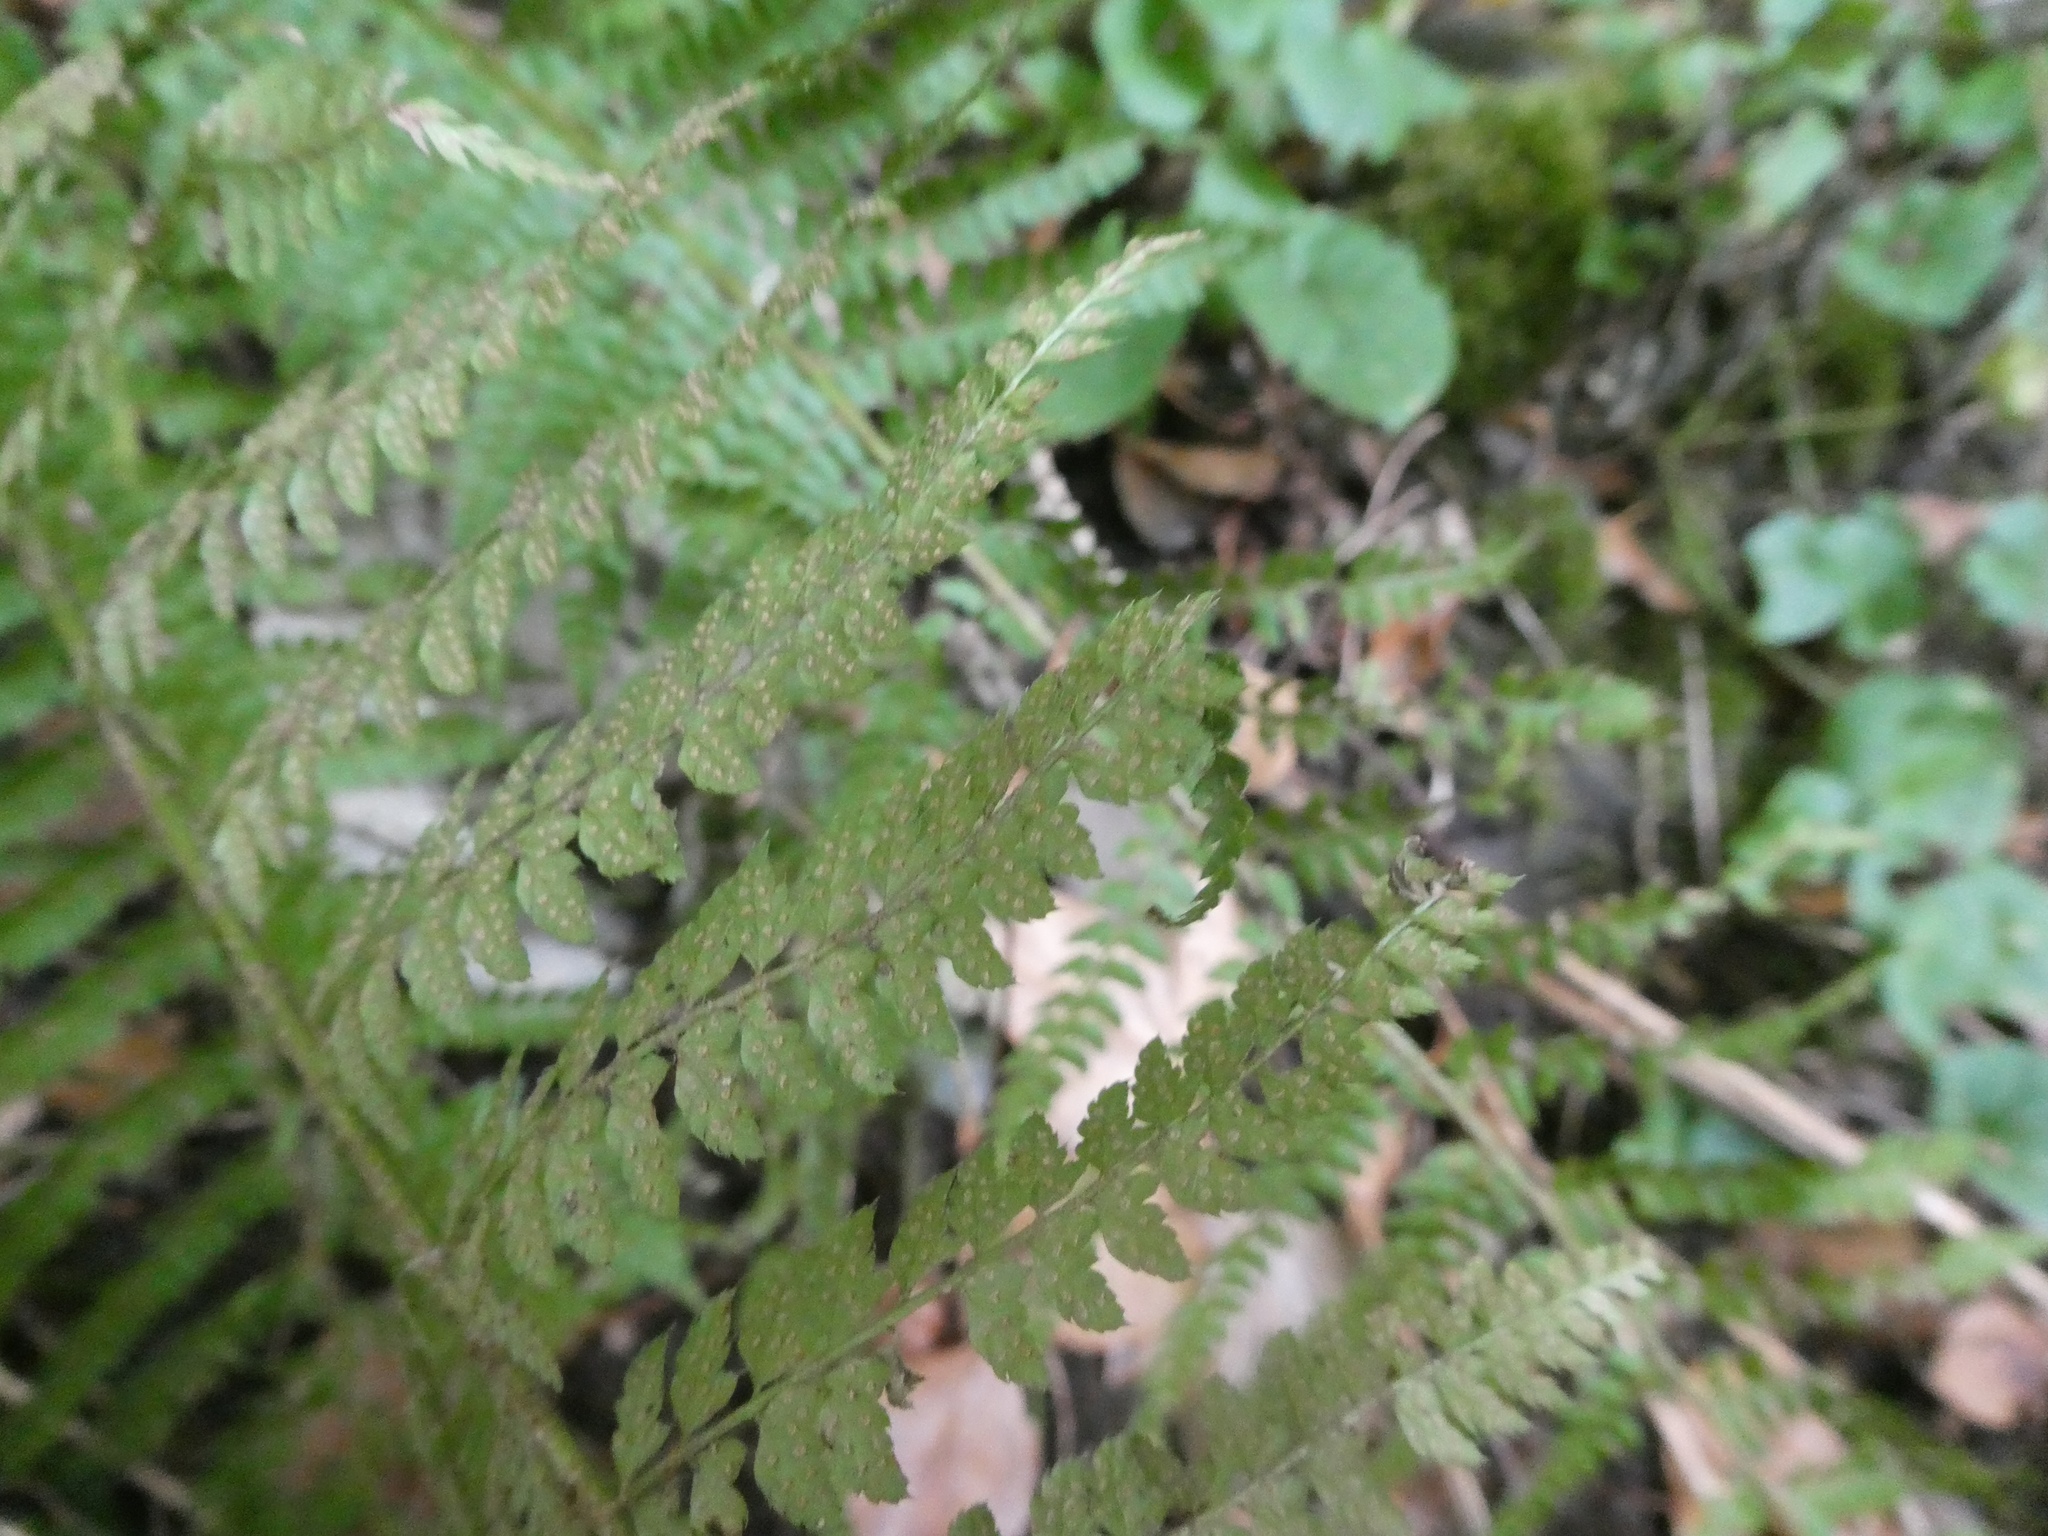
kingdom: Plantae
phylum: Tracheophyta
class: Polypodiopsida
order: Polypodiales
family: Dryopteridaceae
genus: Polystichum
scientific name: Polystichum setiferum
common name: Soft shield-fern
